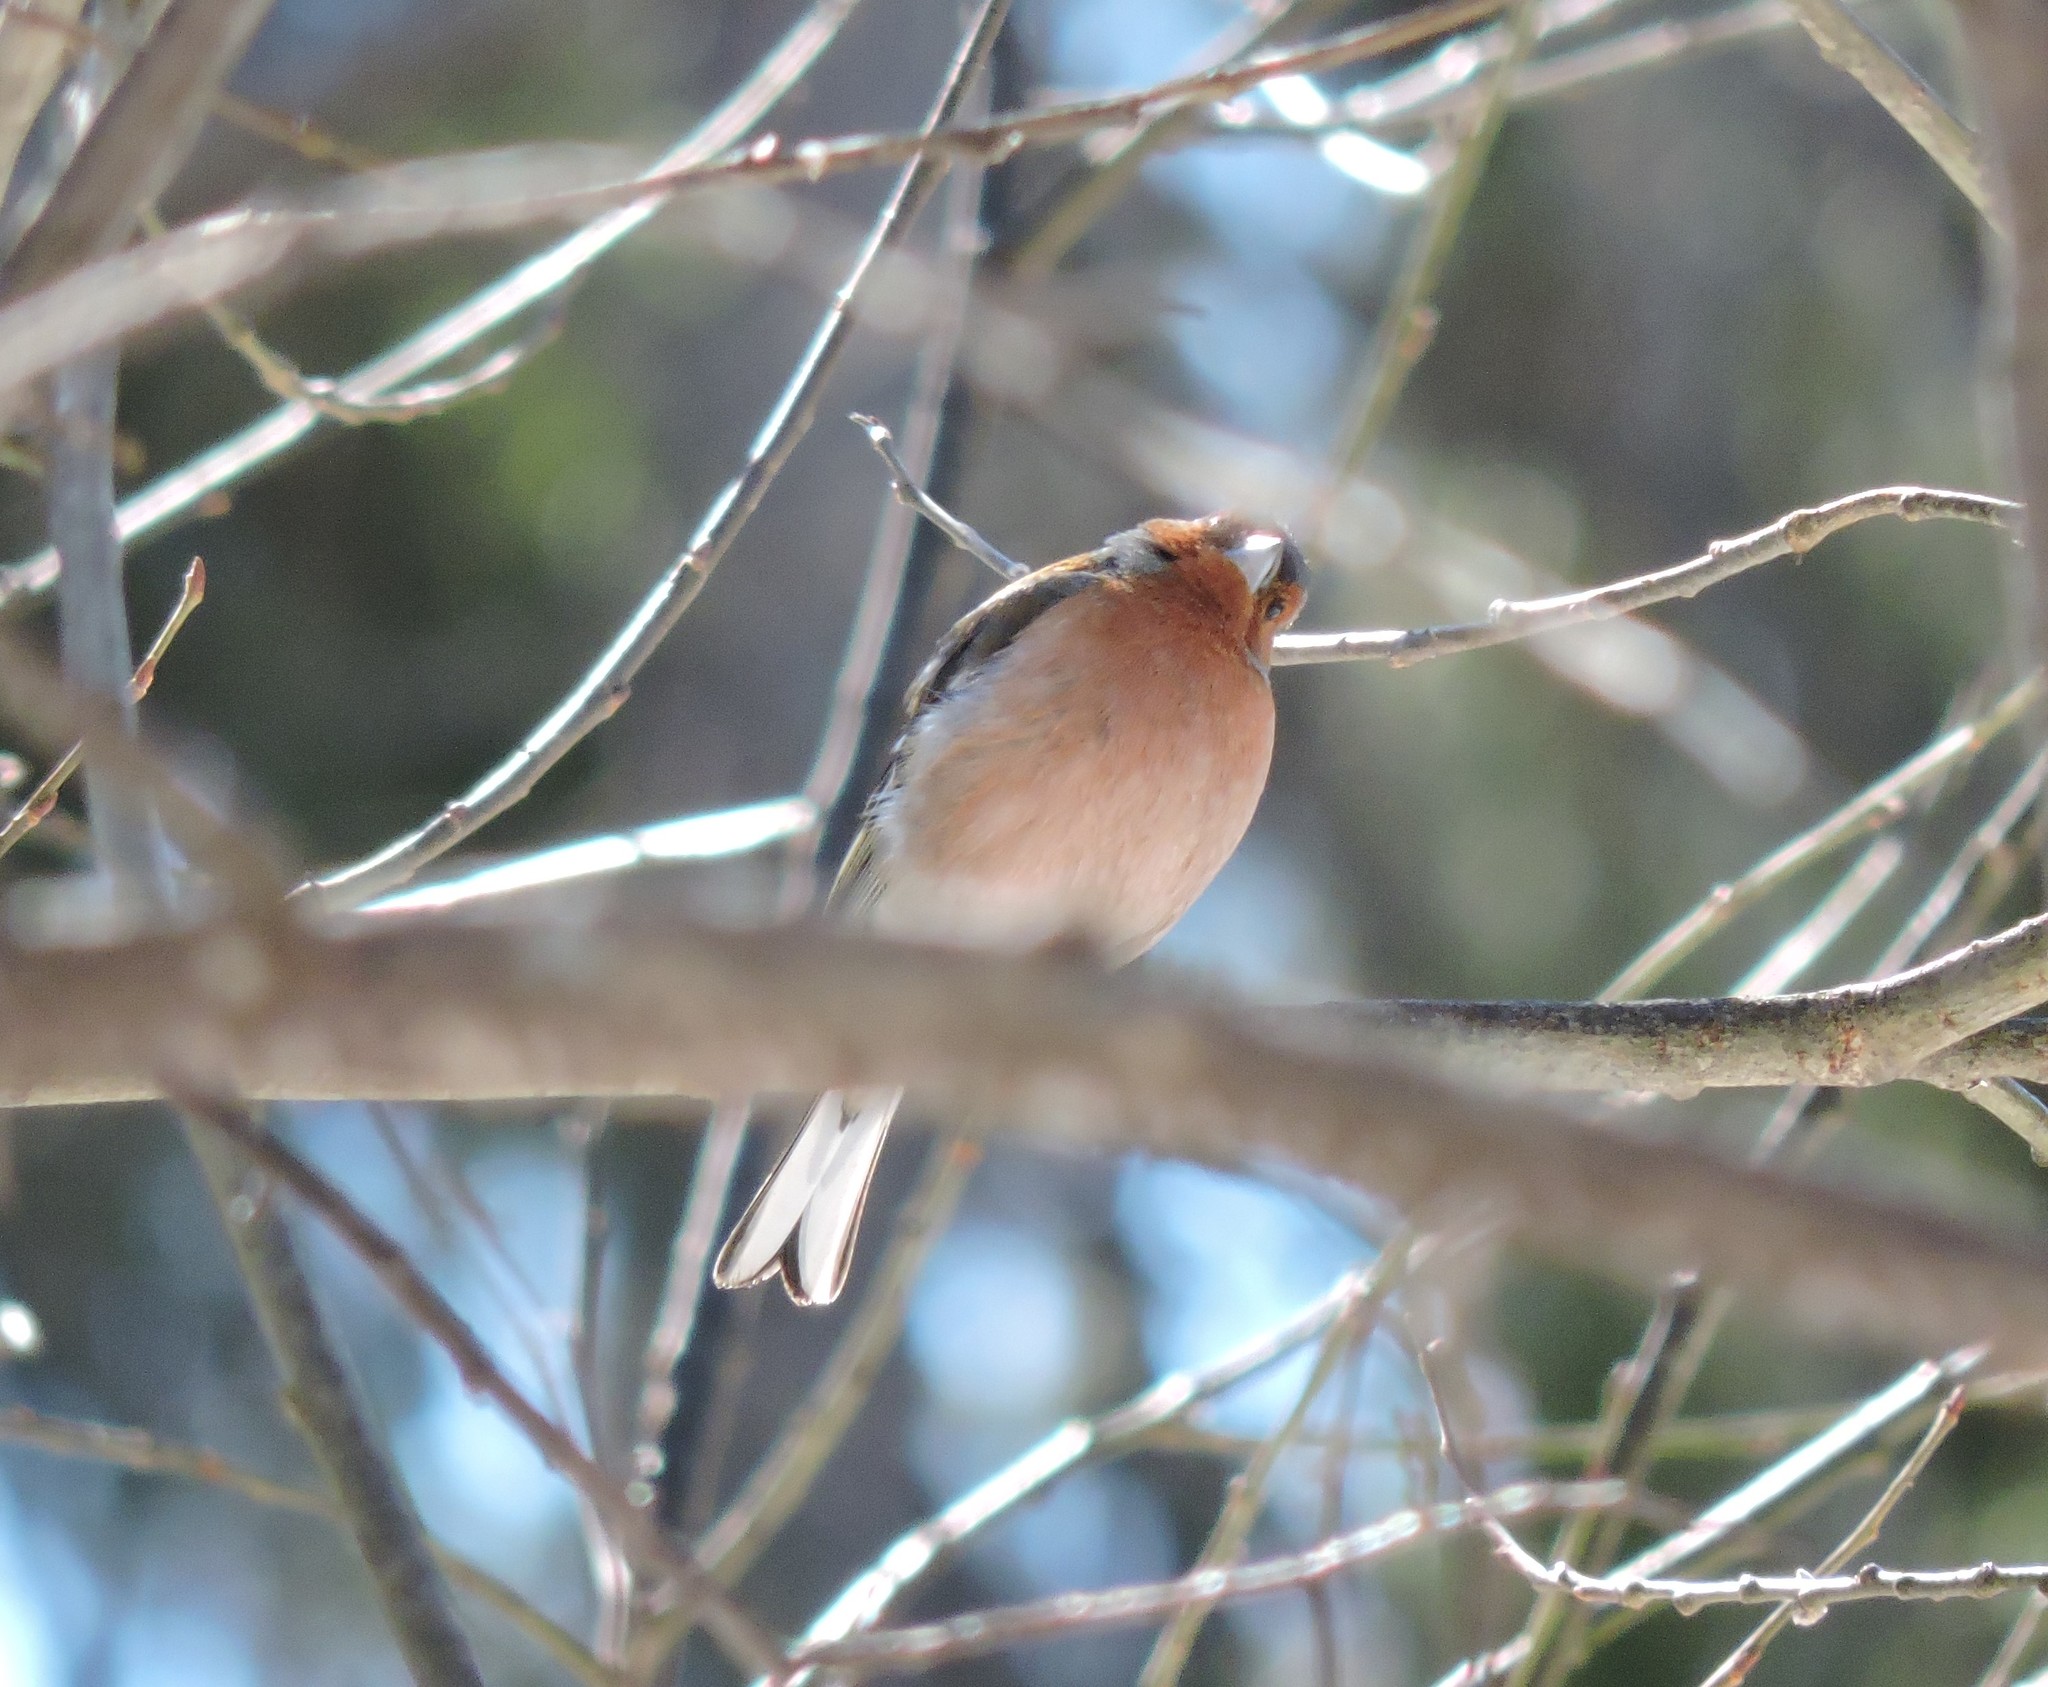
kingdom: Animalia
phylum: Chordata
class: Aves
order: Passeriformes
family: Fringillidae
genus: Fringilla
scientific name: Fringilla coelebs
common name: Common chaffinch
